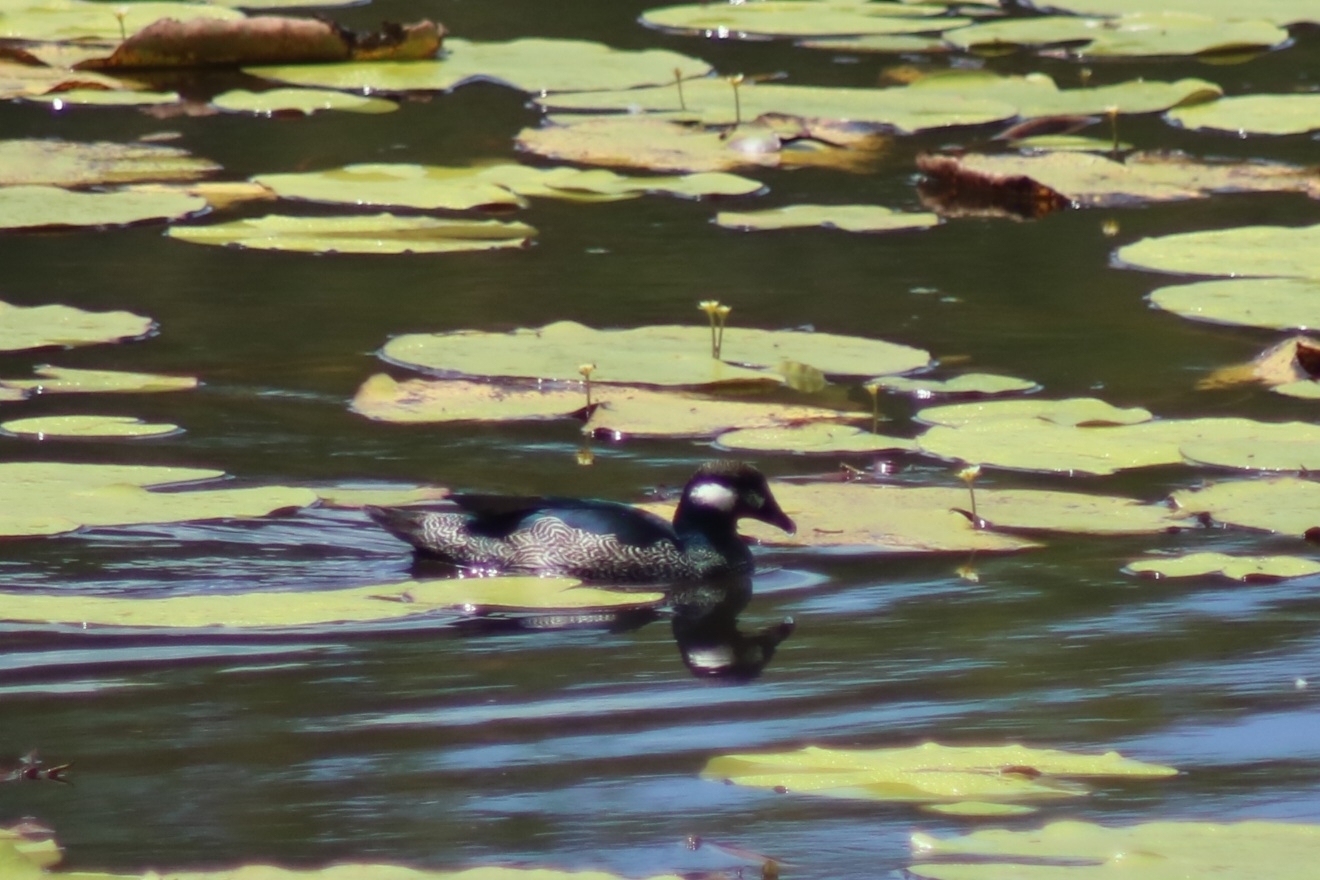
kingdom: Animalia
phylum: Chordata
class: Aves
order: Anseriformes
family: Anatidae
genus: Nettapus
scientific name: Nettapus pulchellus
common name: Green pygmy-goose
